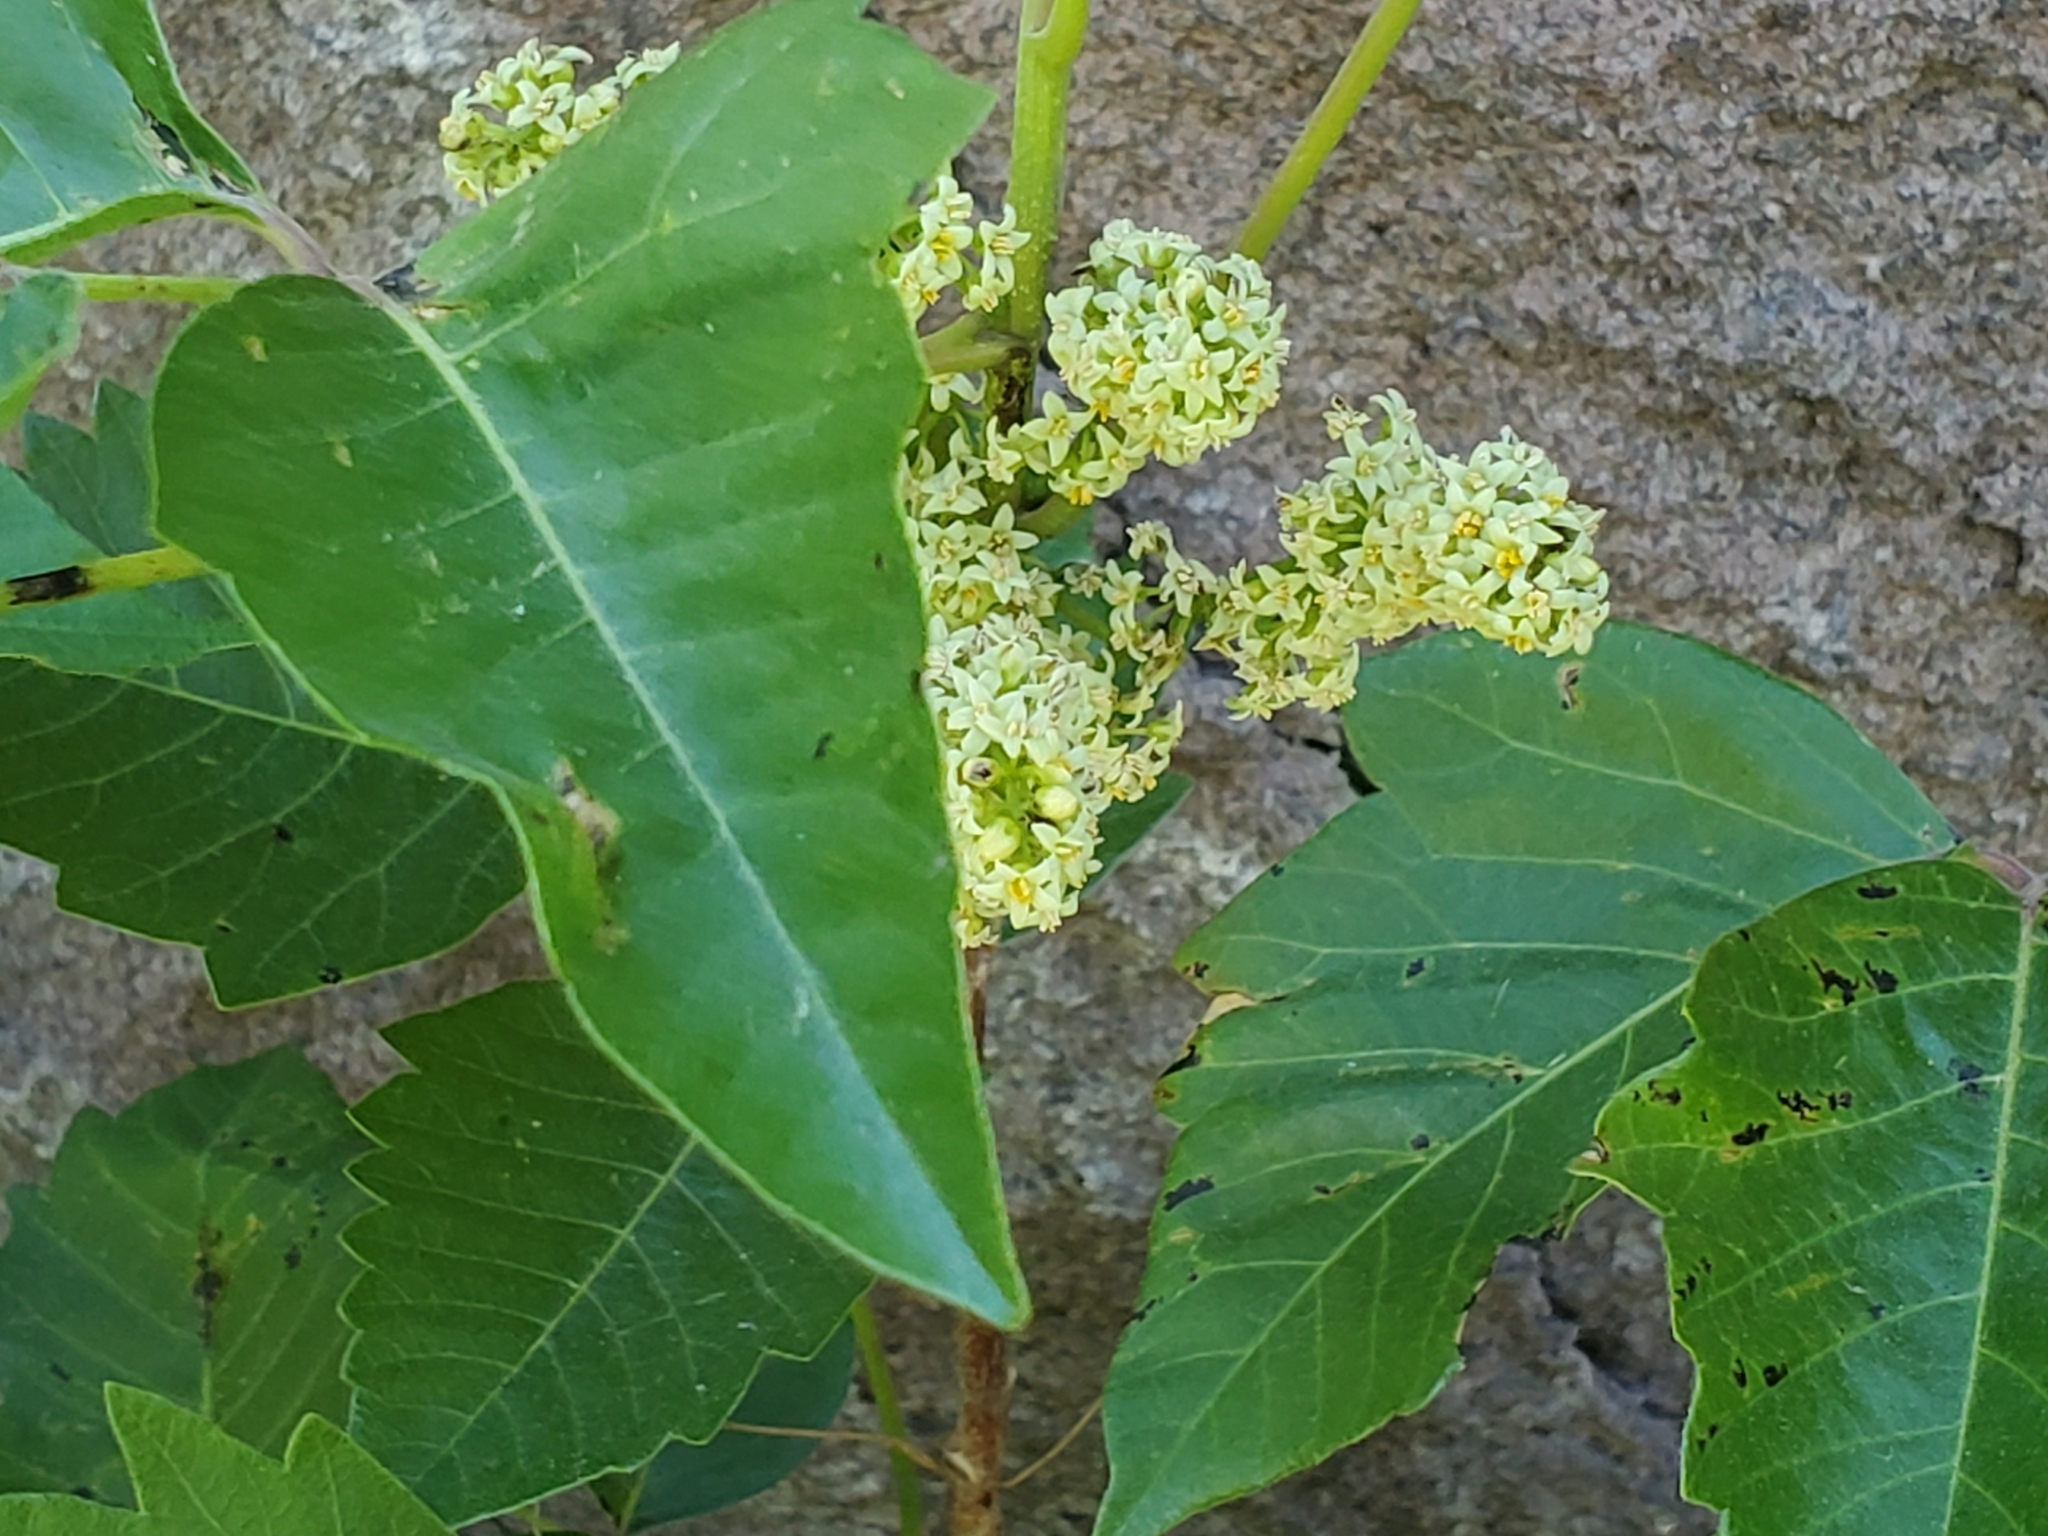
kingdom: Plantae
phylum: Tracheophyta
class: Magnoliopsida
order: Sapindales
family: Anacardiaceae
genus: Toxicodendron
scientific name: Toxicodendron rydbergii
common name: Rydberg's poison-ivy
